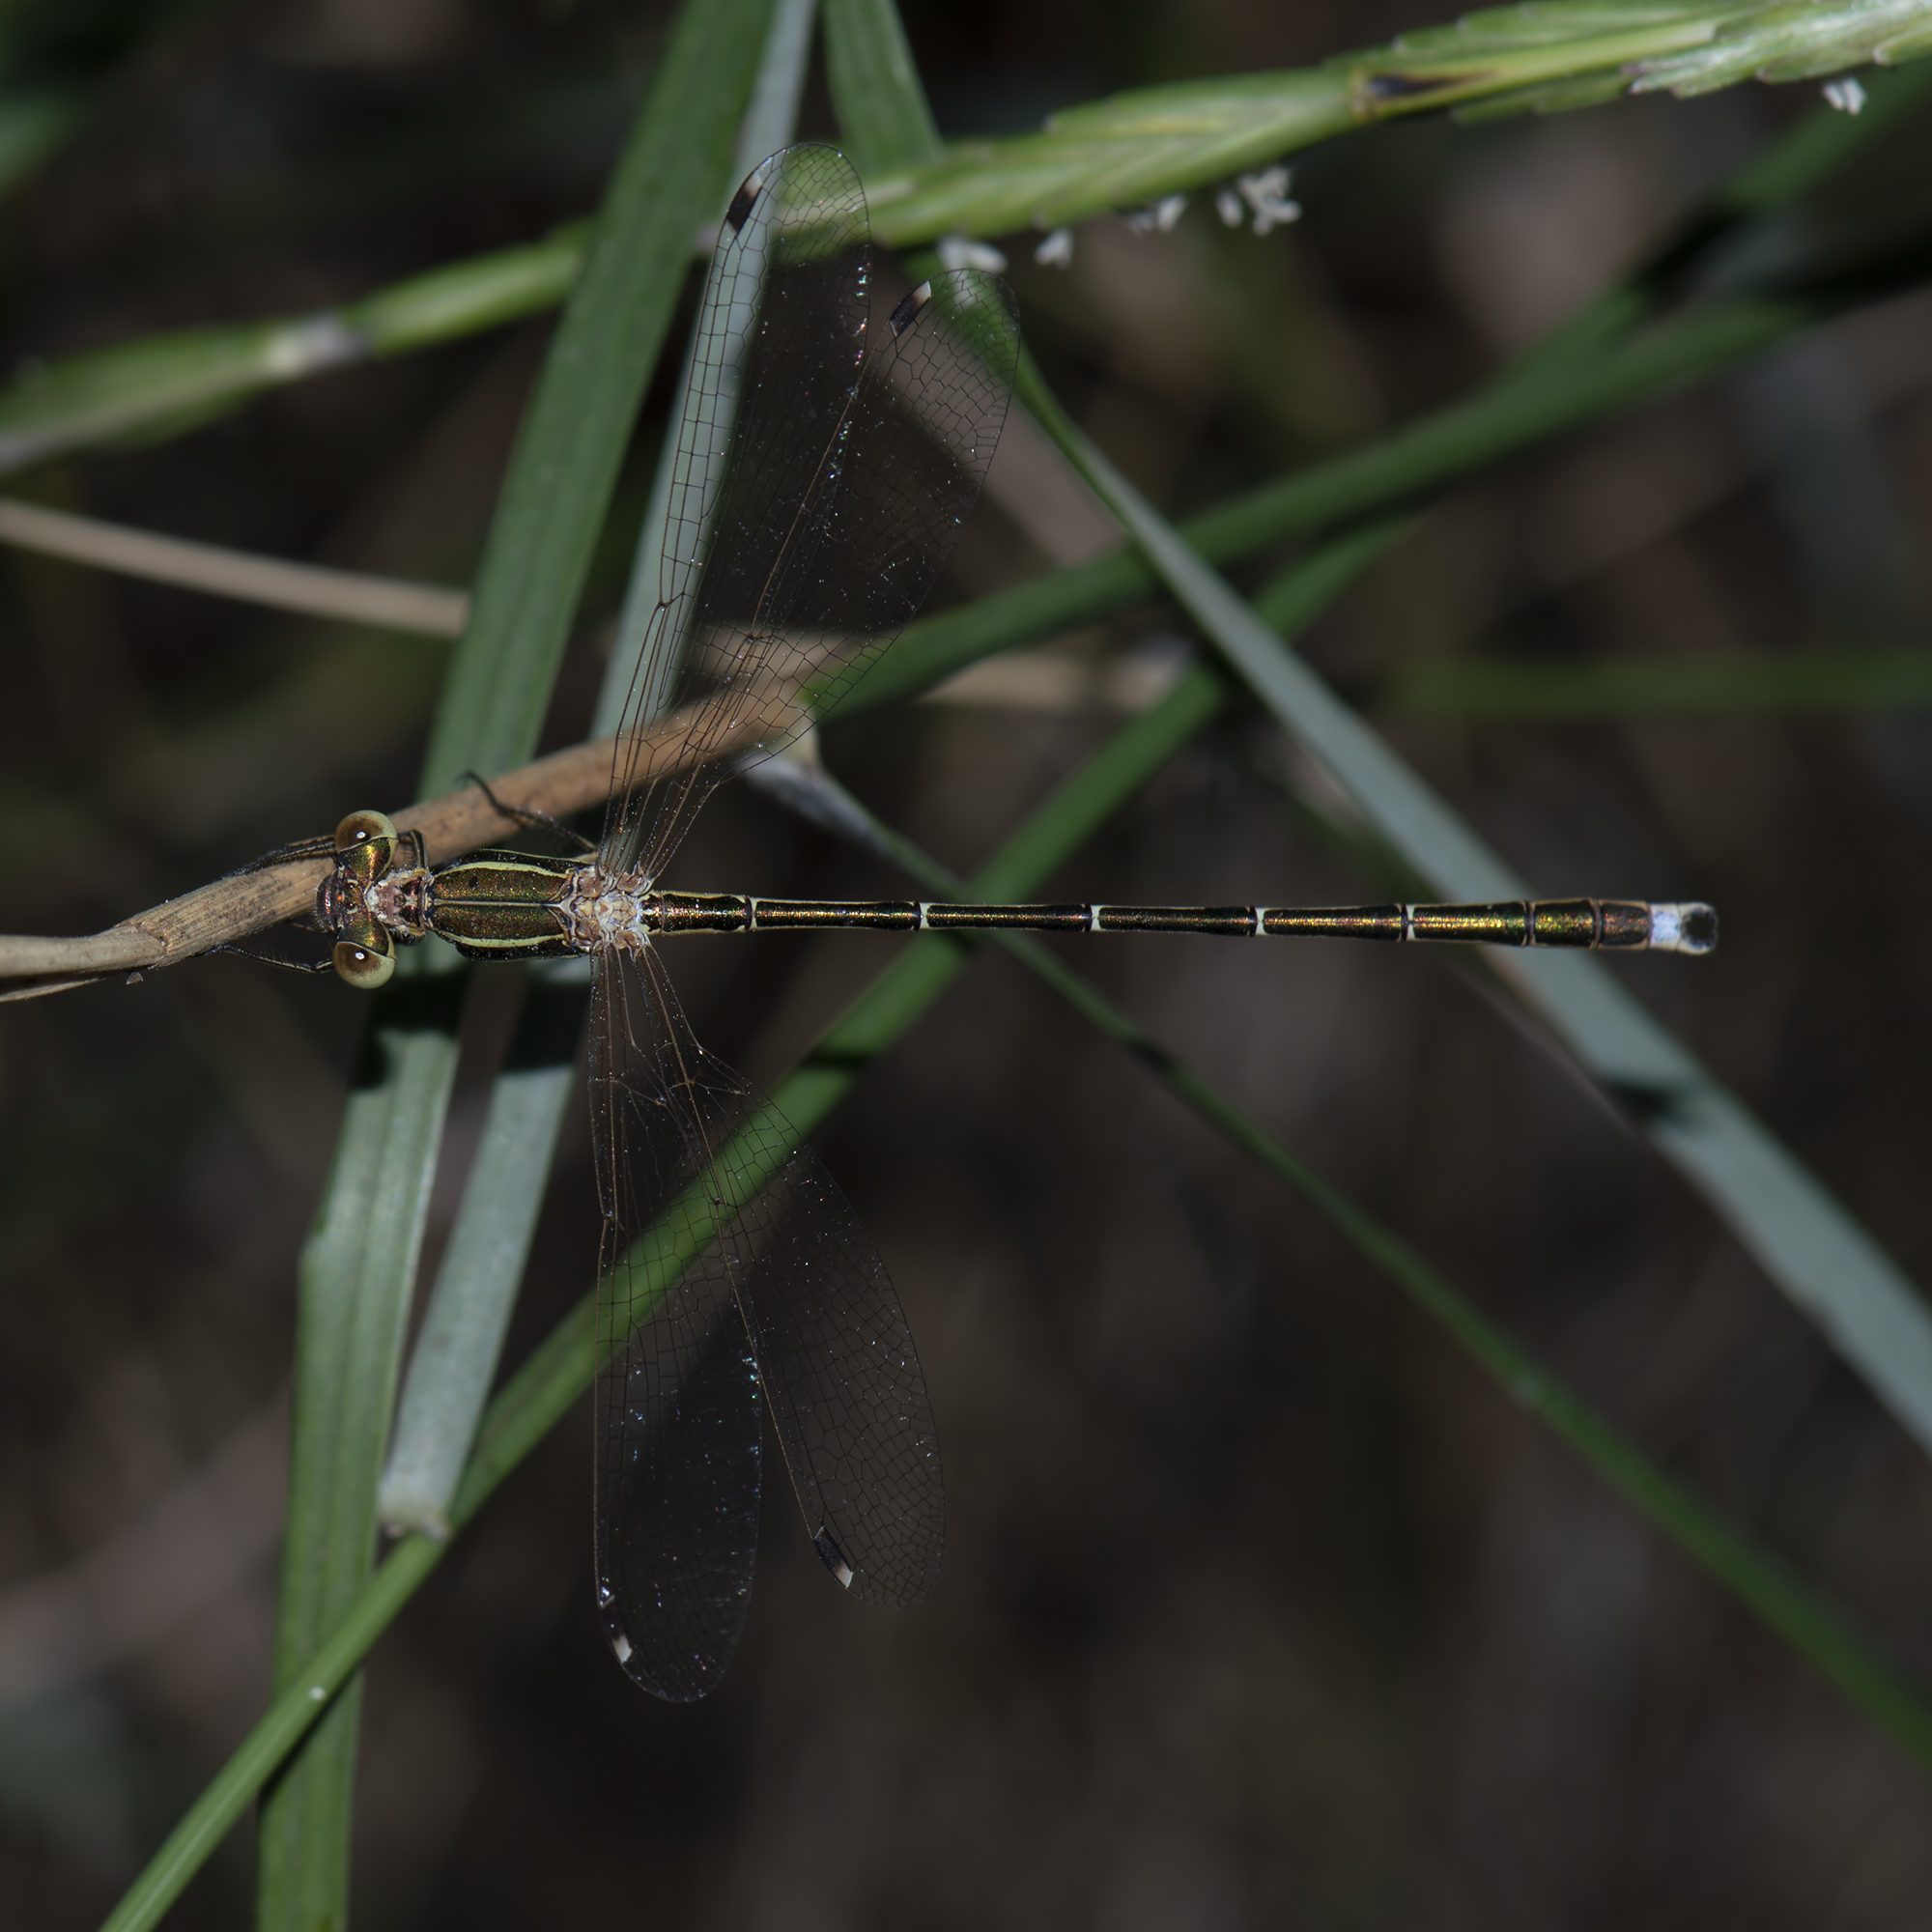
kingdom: Animalia
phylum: Arthropoda
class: Insecta
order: Odonata
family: Lestidae
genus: Lestes
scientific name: Lestes barbarus
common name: Migrant spreadwing
